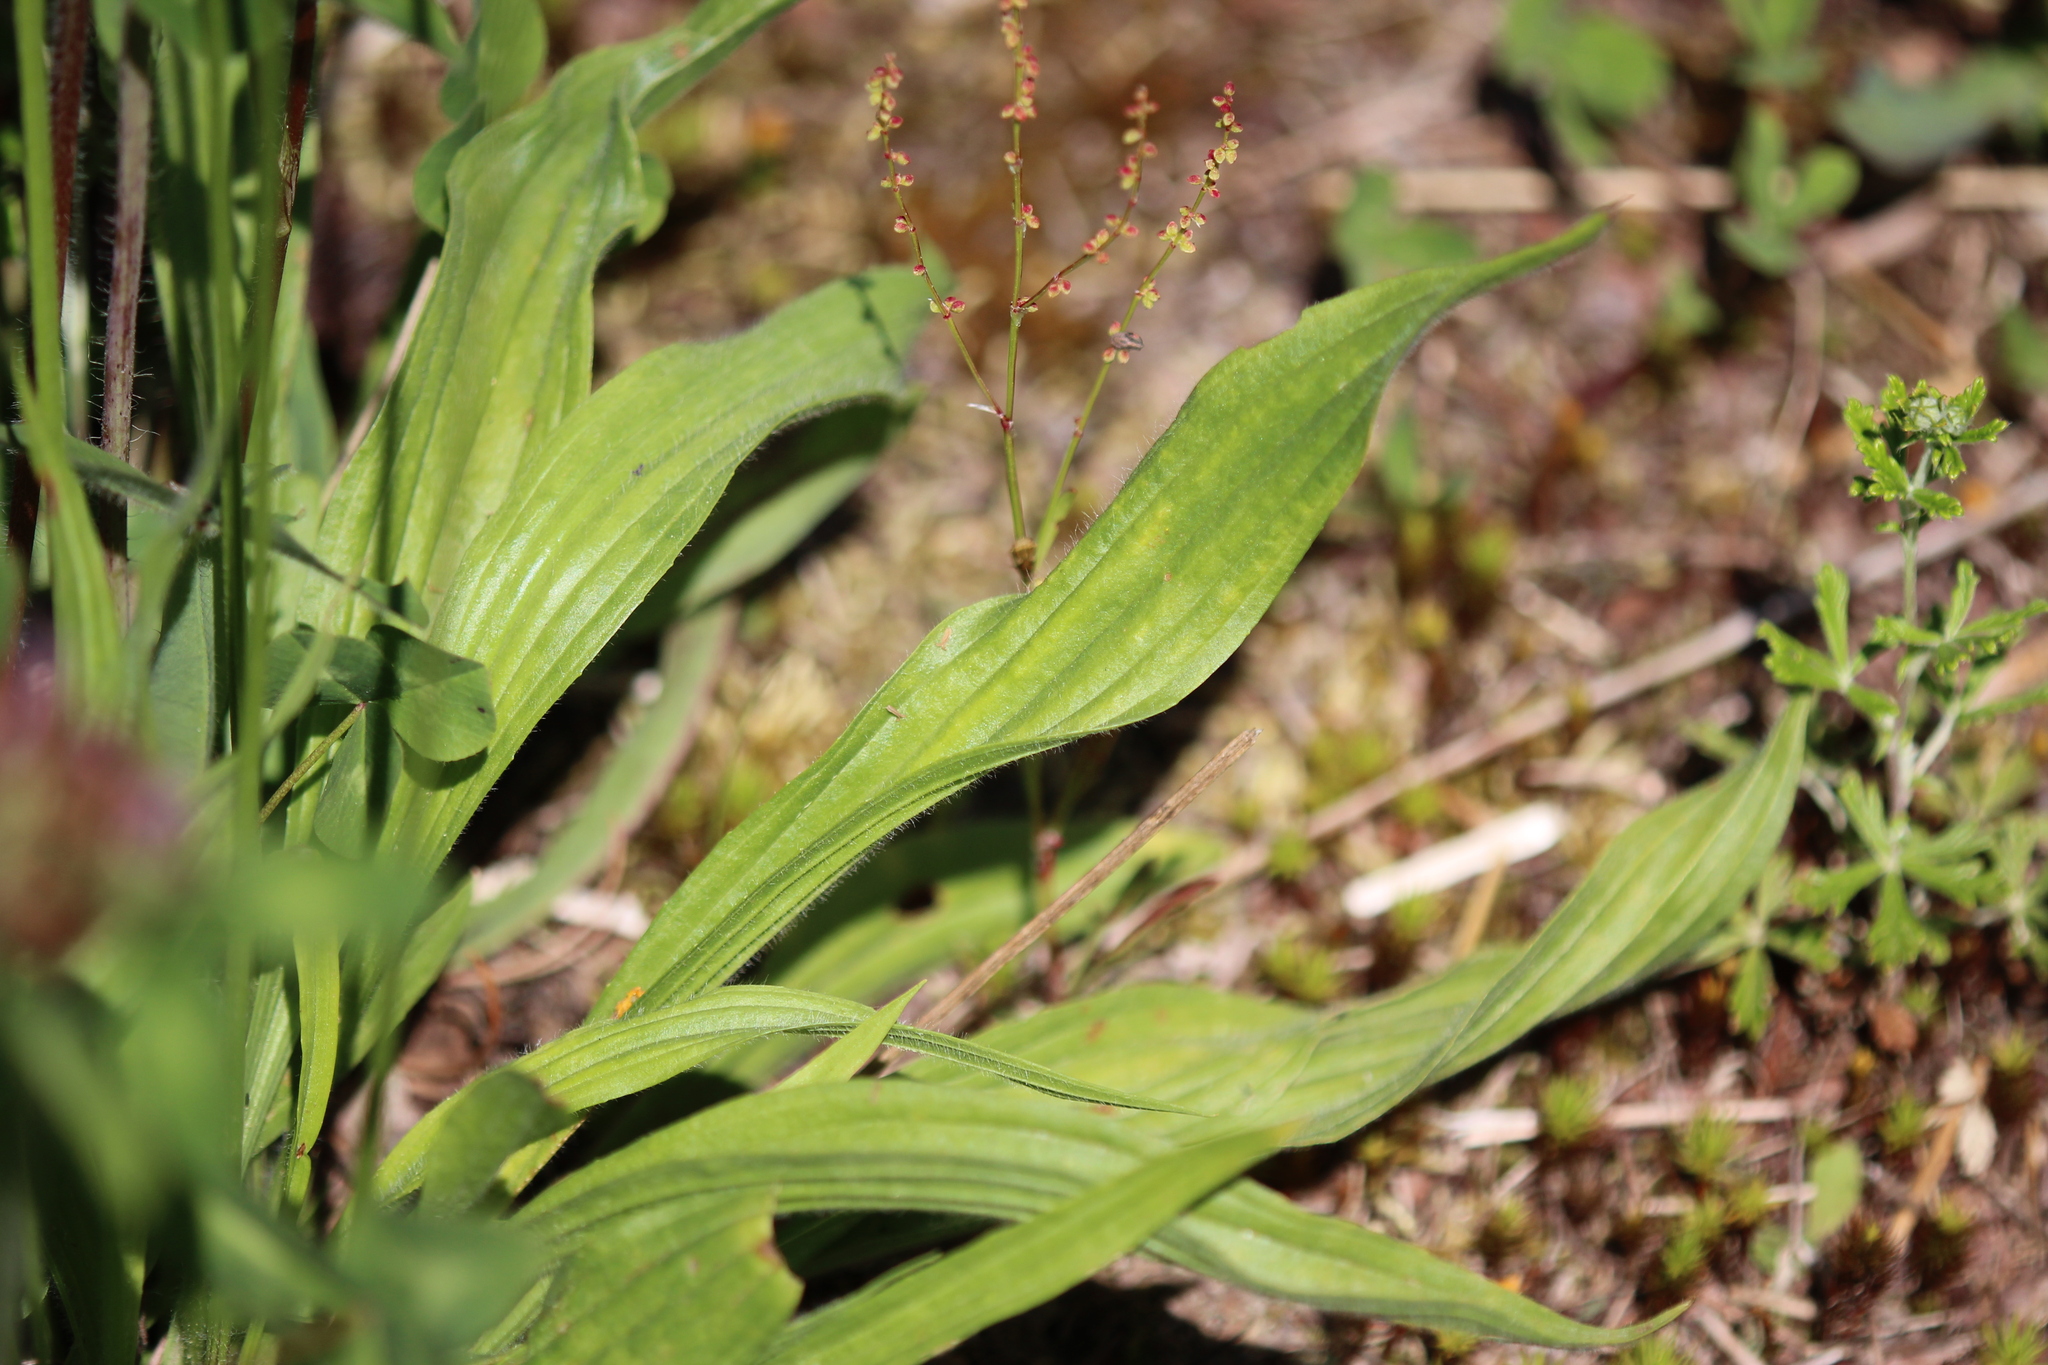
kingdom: Plantae
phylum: Tracheophyta
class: Magnoliopsida
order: Lamiales
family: Plantaginaceae
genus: Plantago
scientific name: Plantago lanceolata
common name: Ribwort plantain
